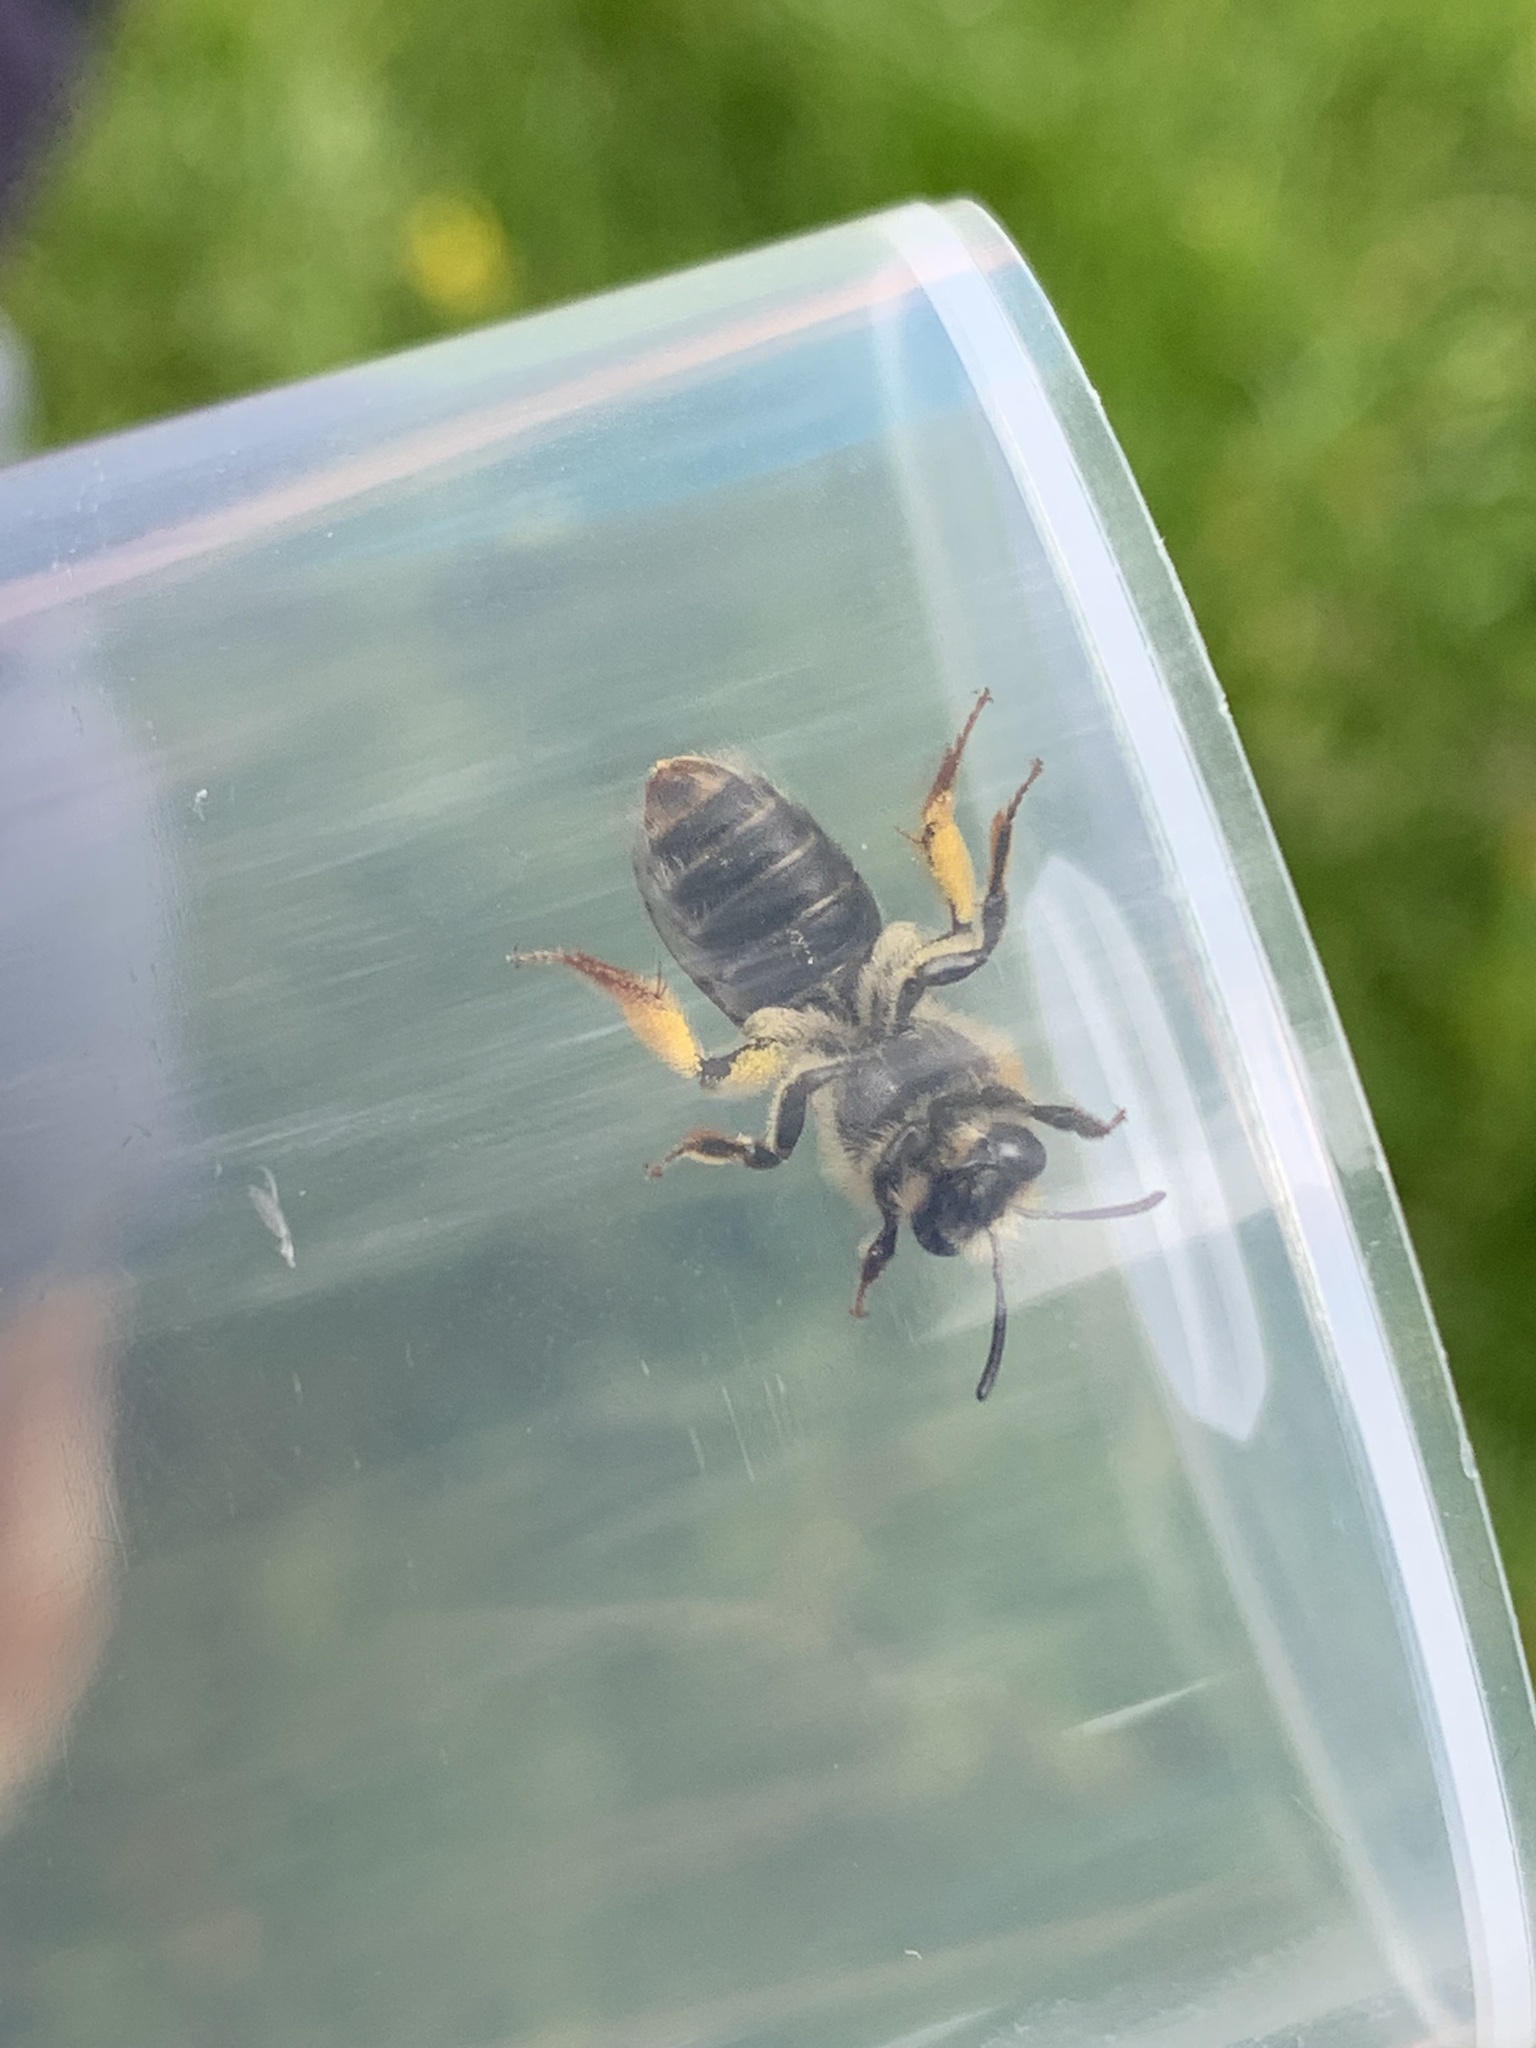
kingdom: Animalia
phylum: Arthropoda
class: Insecta
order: Hymenoptera
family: Andrenidae
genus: Andrena
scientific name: Andrena haemorrhoa
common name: Early mining bee
